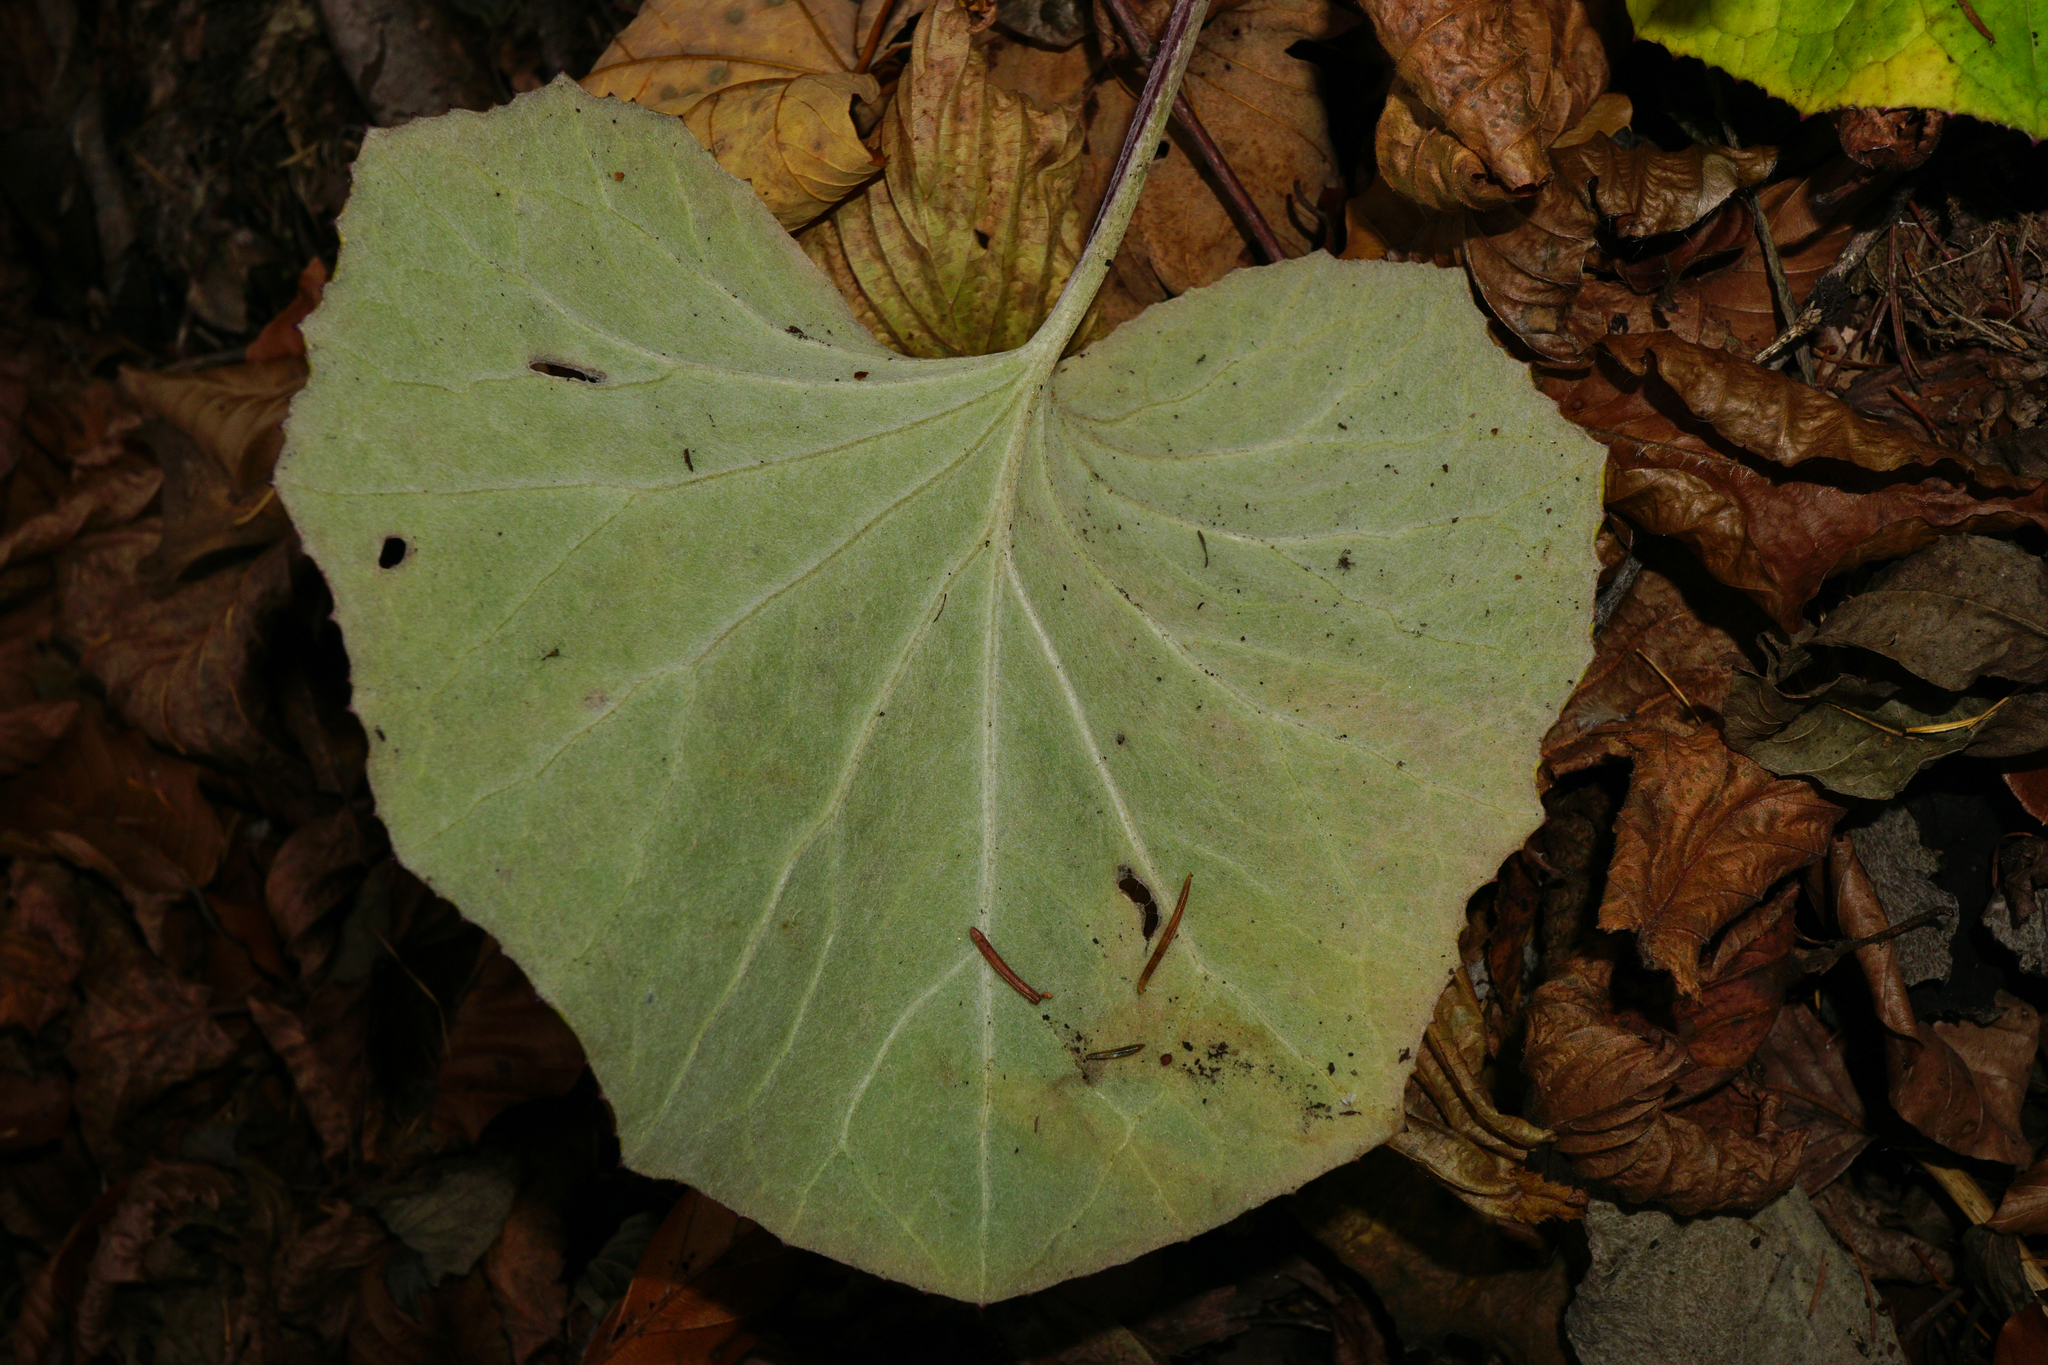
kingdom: Plantae
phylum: Tracheophyta
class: Magnoliopsida
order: Asterales
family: Asteraceae
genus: Tussilago
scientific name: Tussilago farfara
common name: Coltsfoot
